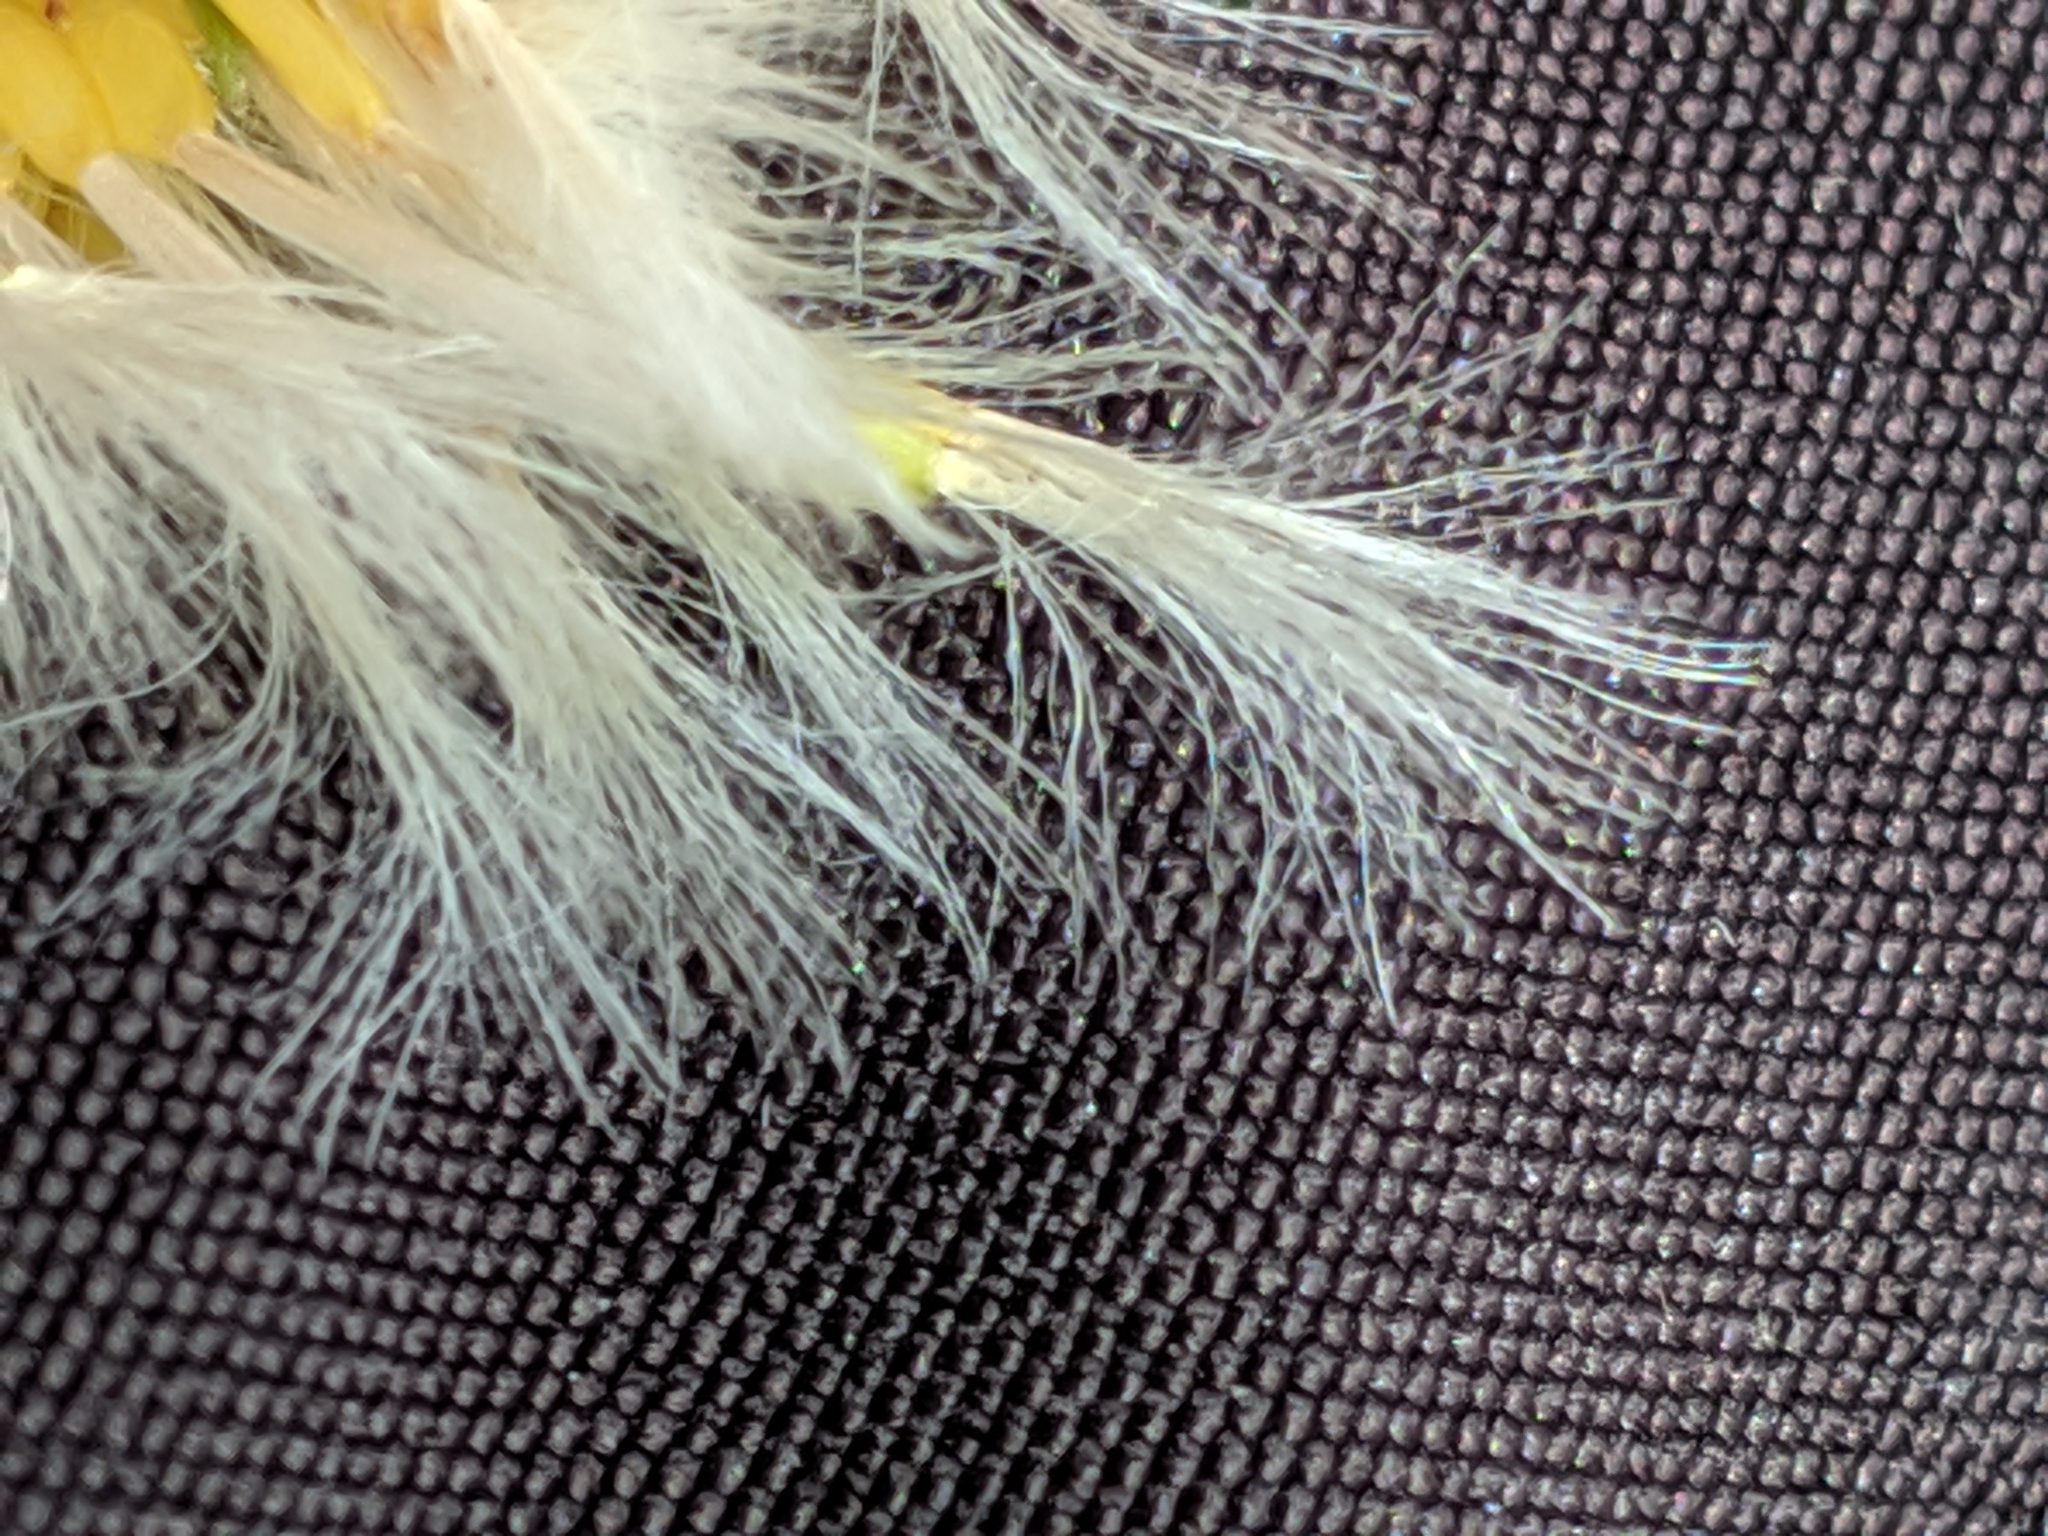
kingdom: Plantae
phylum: Tracheophyta
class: Magnoliopsida
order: Asterales
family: Asteraceae
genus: Sonchus
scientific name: Sonchus oleraceus
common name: Common sowthistle
